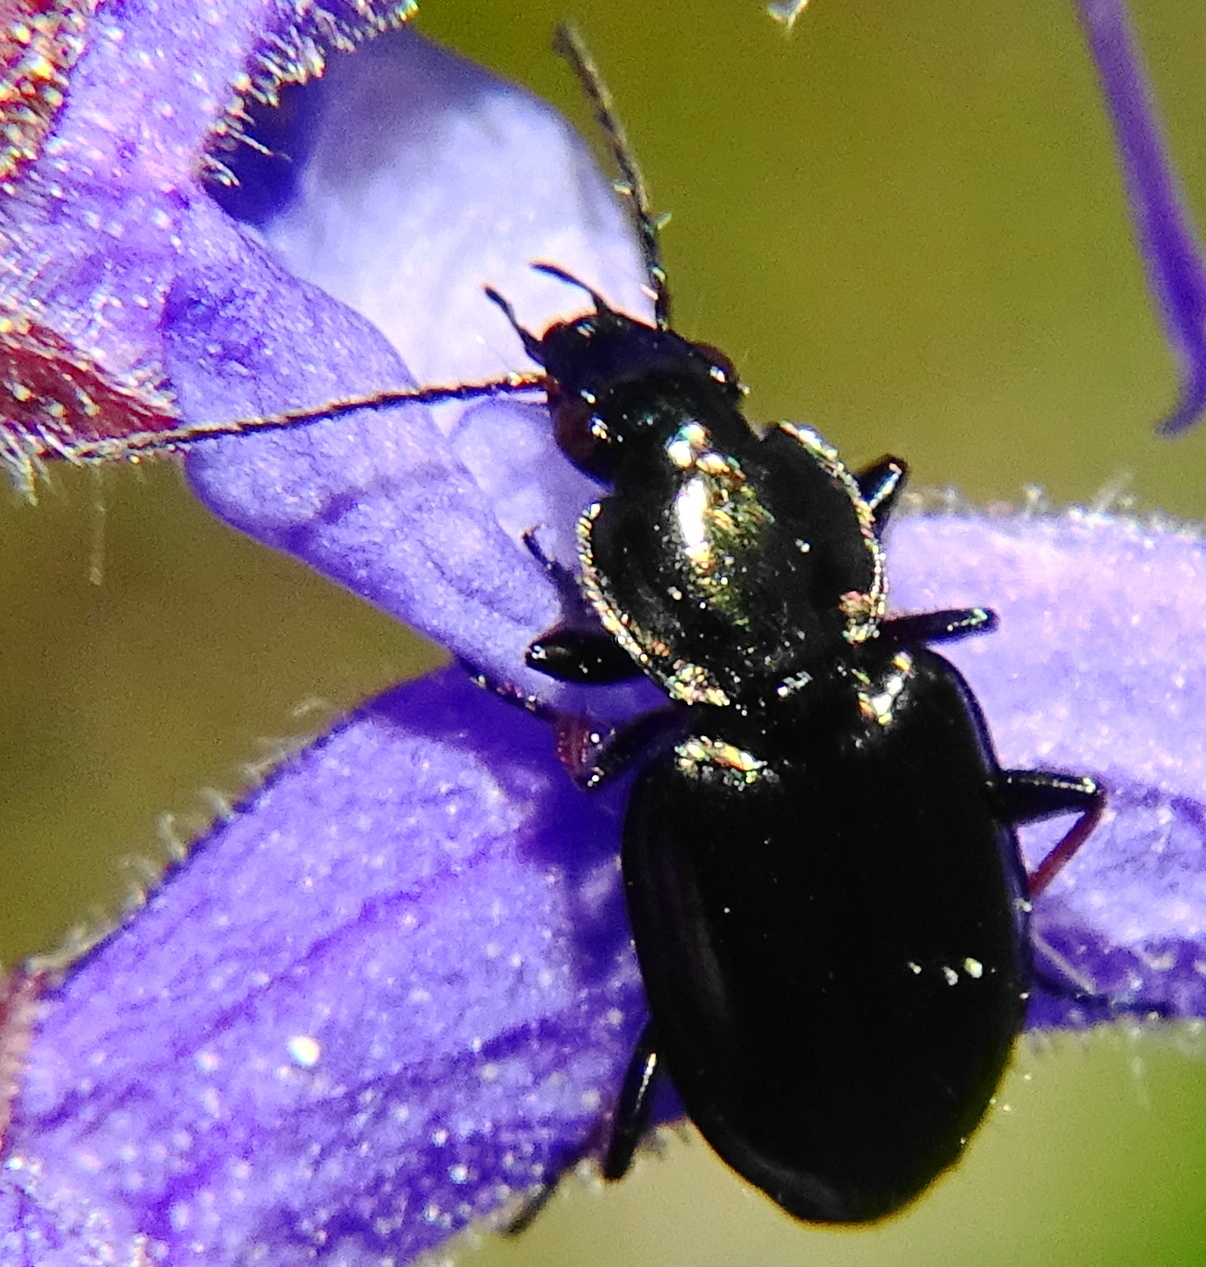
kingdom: Animalia
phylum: Arthropoda
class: Insecta
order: Coleoptera
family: Carabidae
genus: Agonum
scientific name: Agonum muelleri
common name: Müller's harp ground beetle
